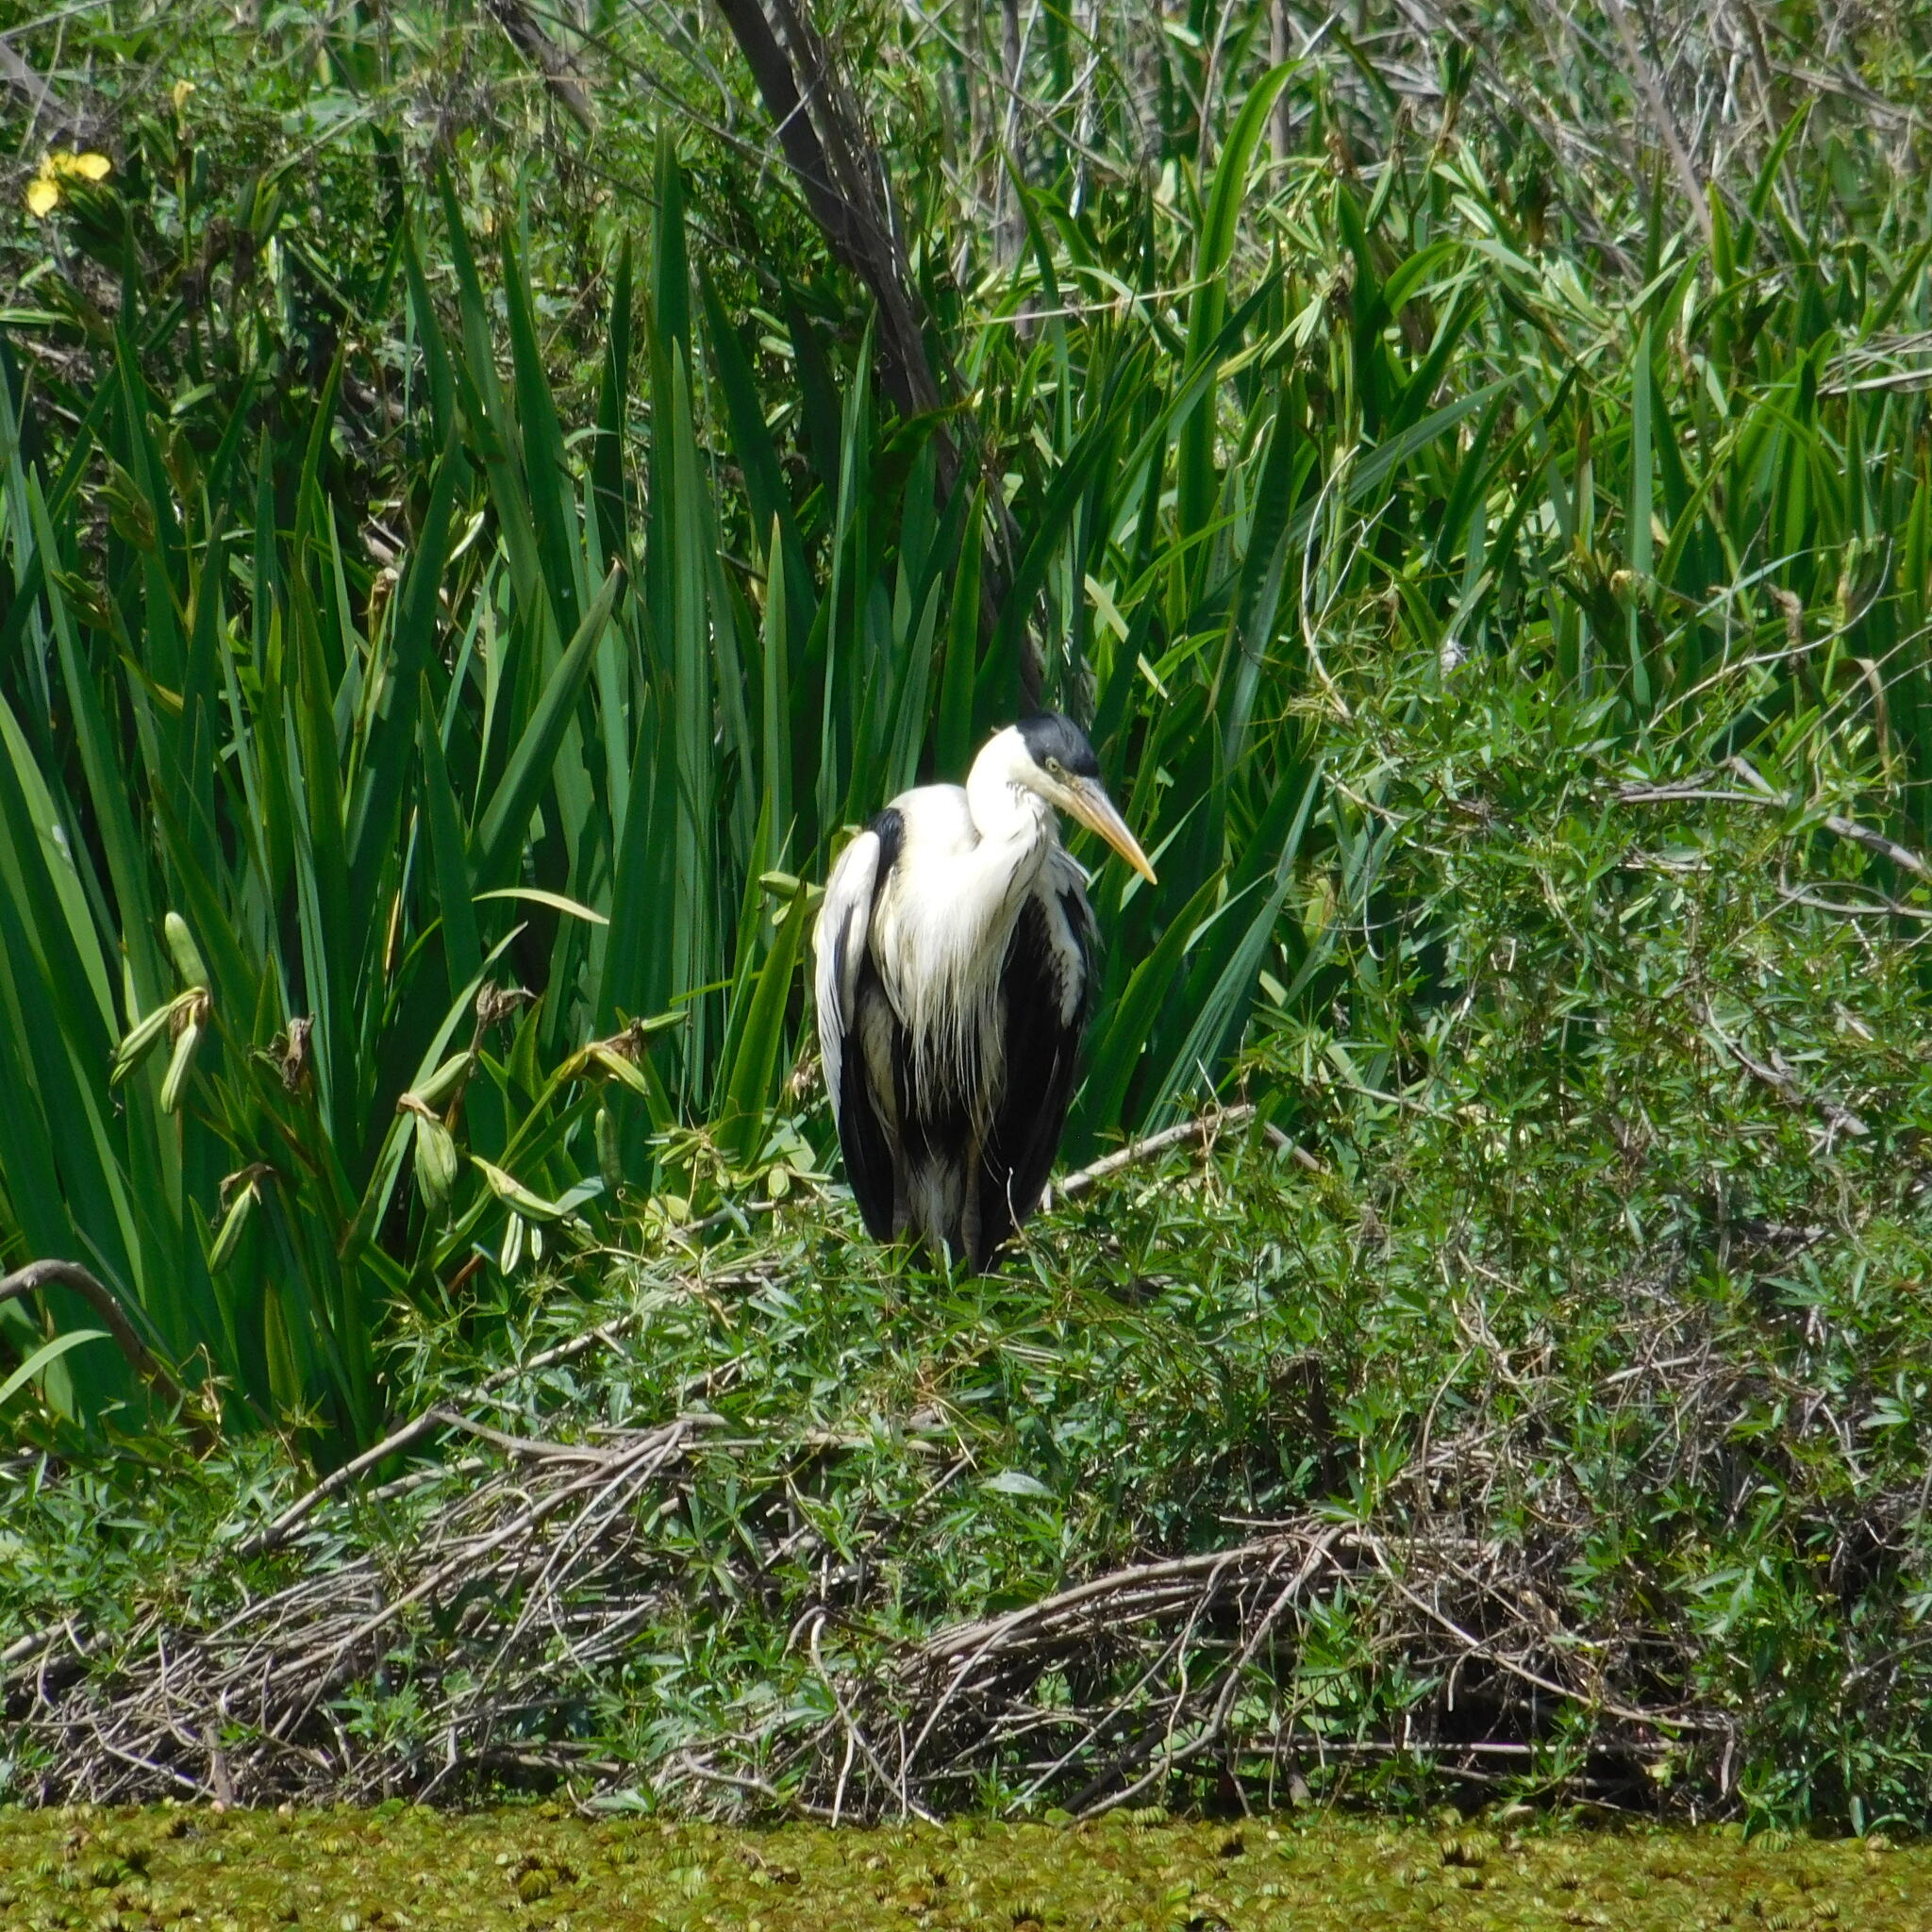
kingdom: Animalia
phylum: Chordata
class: Aves
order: Pelecaniformes
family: Ardeidae
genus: Ardea
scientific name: Ardea cocoi
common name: Cocoi heron
